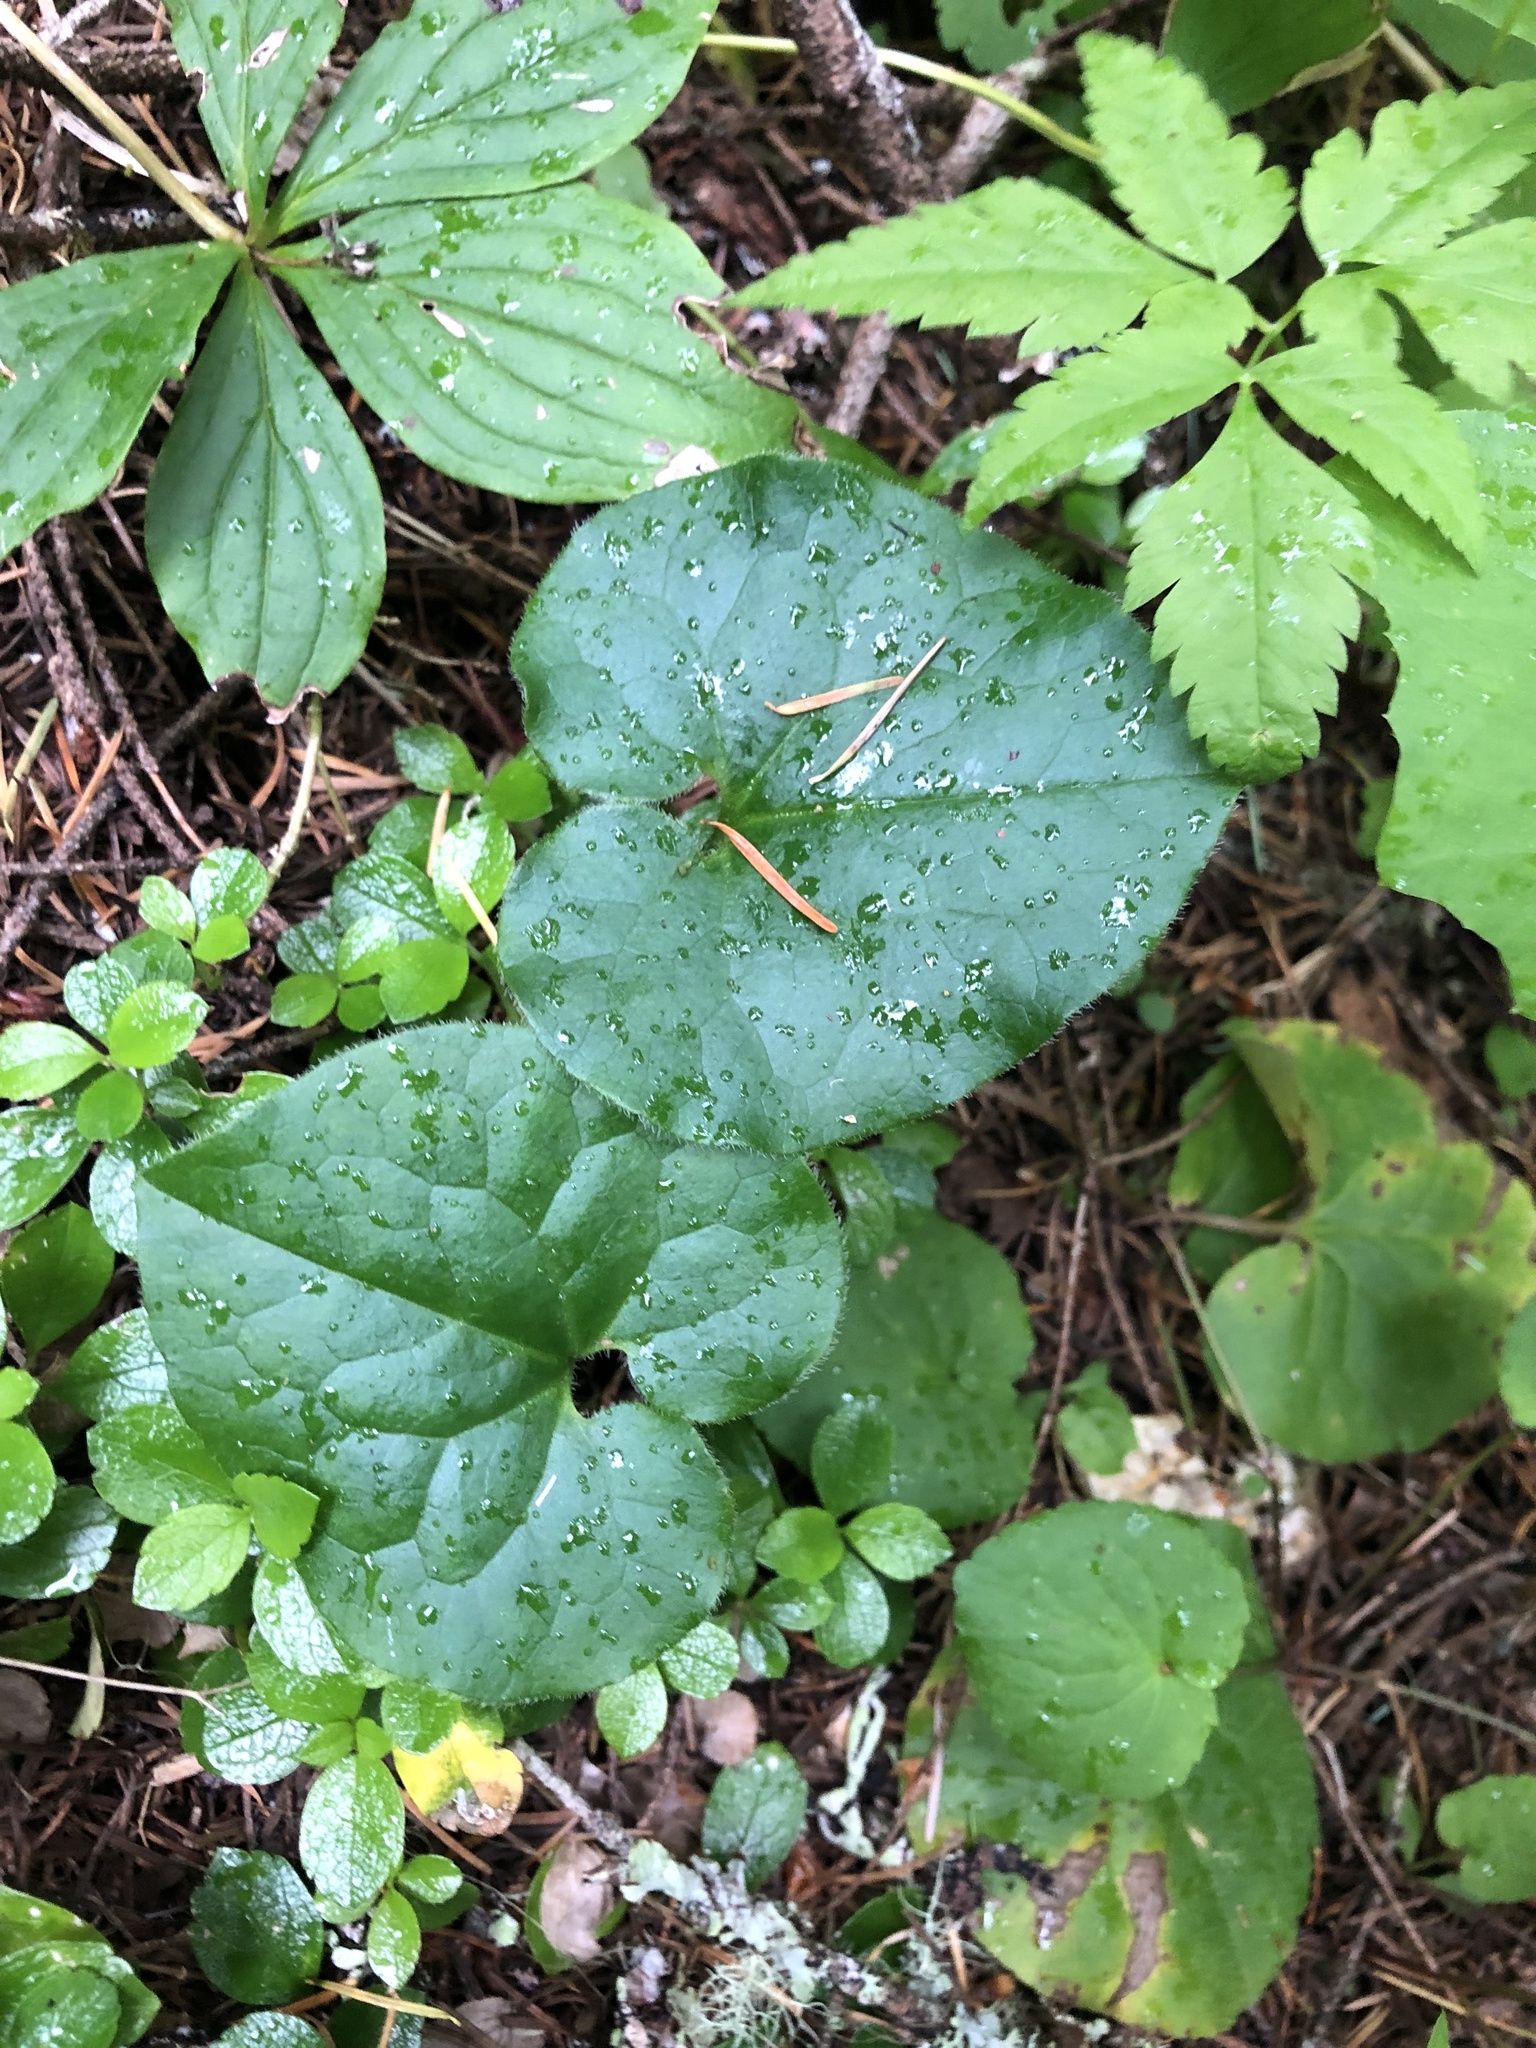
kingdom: Plantae
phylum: Tracheophyta
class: Magnoliopsida
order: Piperales
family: Aristolochiaceae
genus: Asarum
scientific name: Asarum caudatum
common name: Wild ginger
